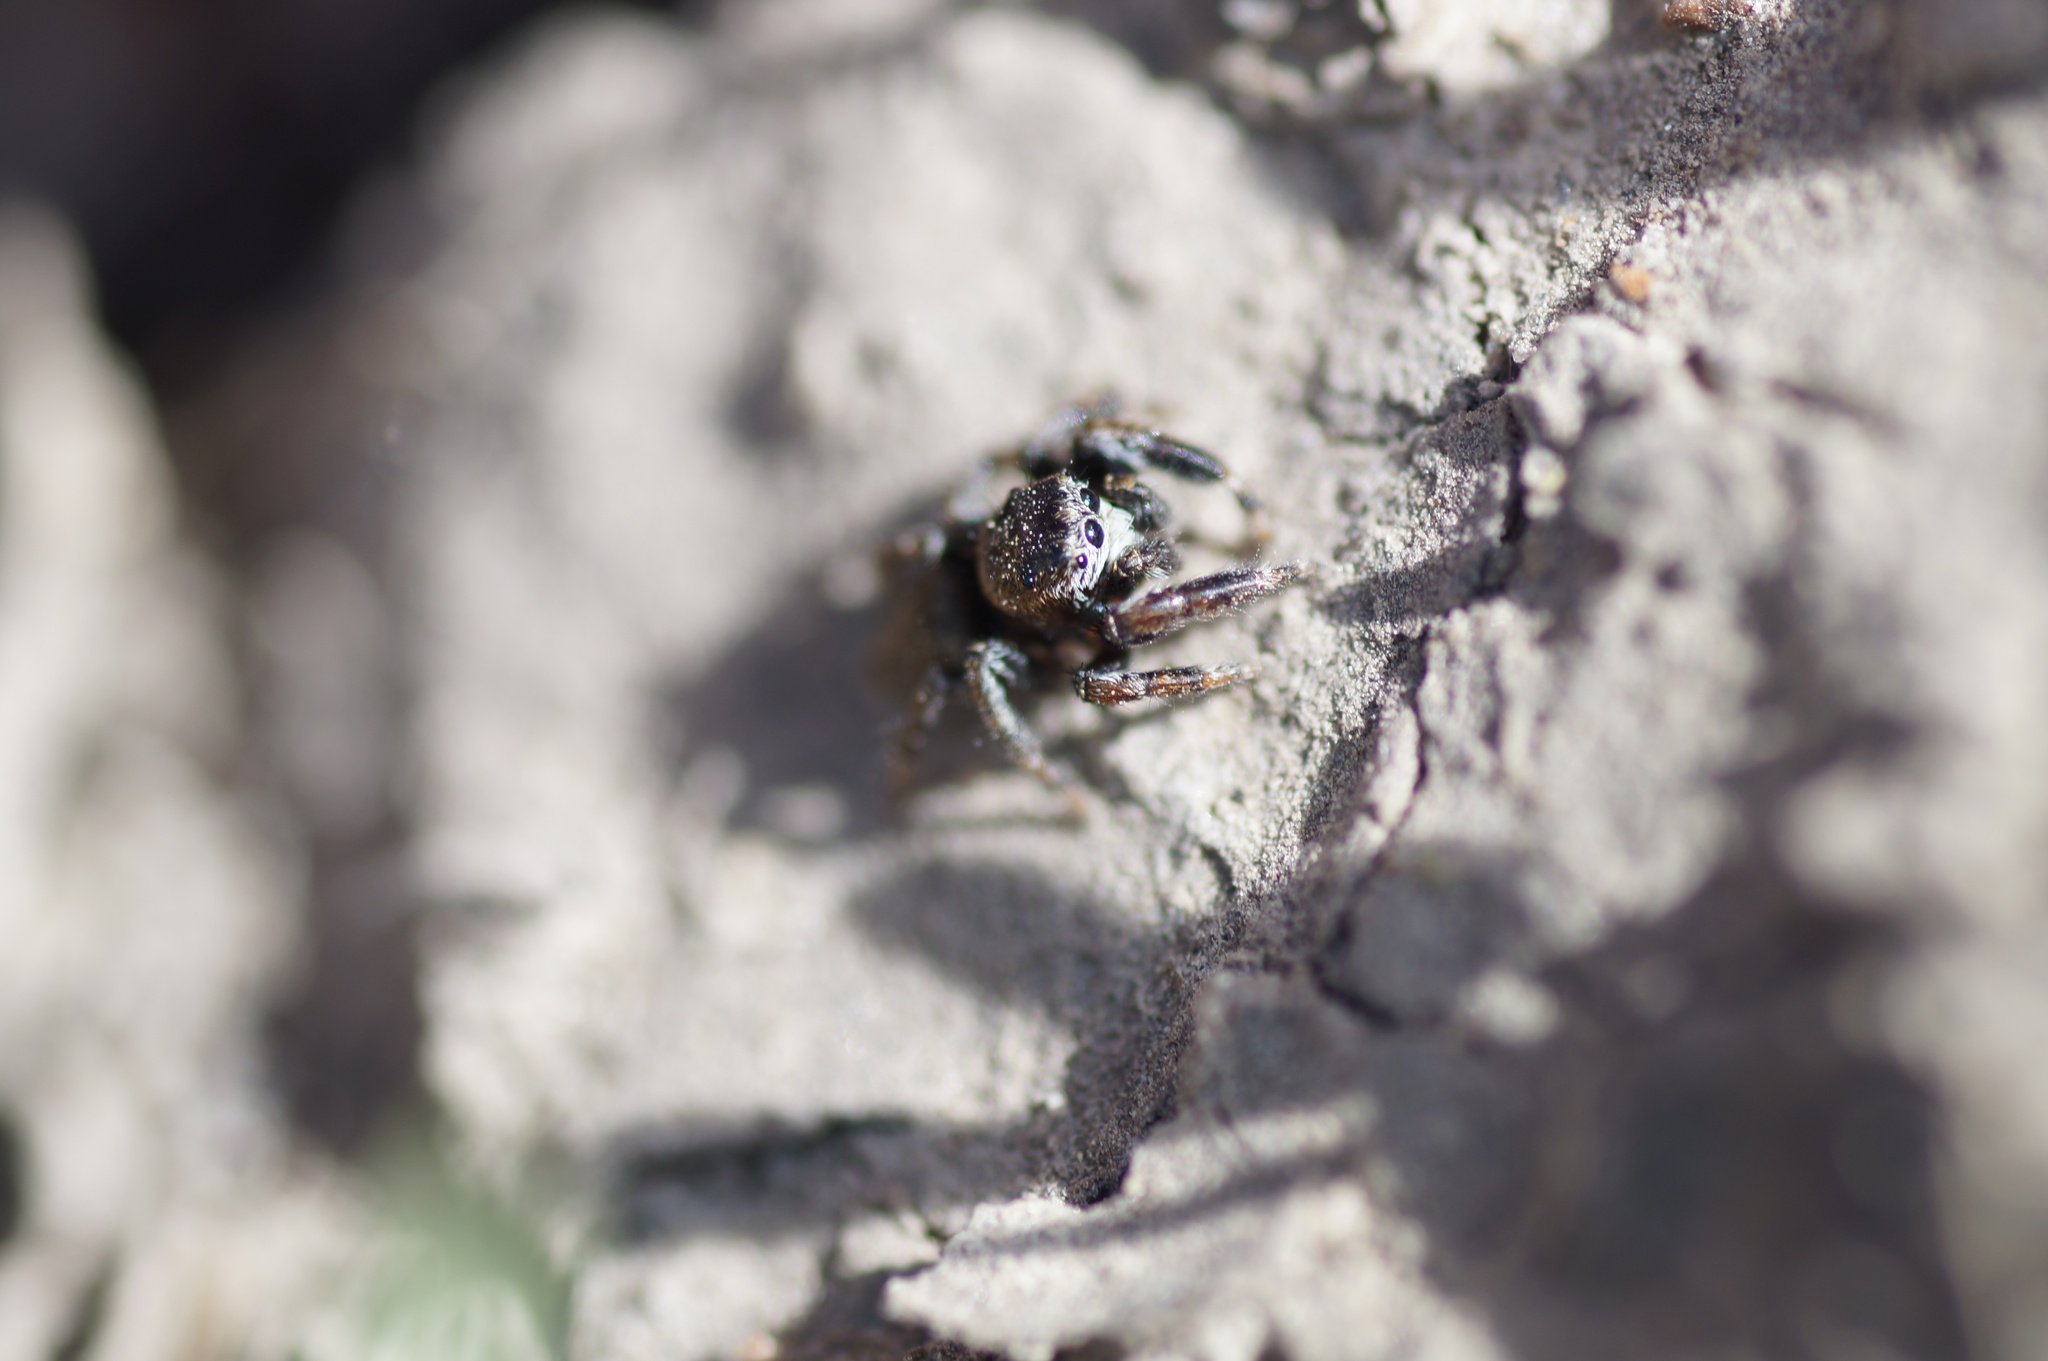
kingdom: Animalia
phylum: Arthropoda
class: Arachnida
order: Araneae
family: Salticidae
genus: Evarcha
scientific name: Evarcha arcuata
